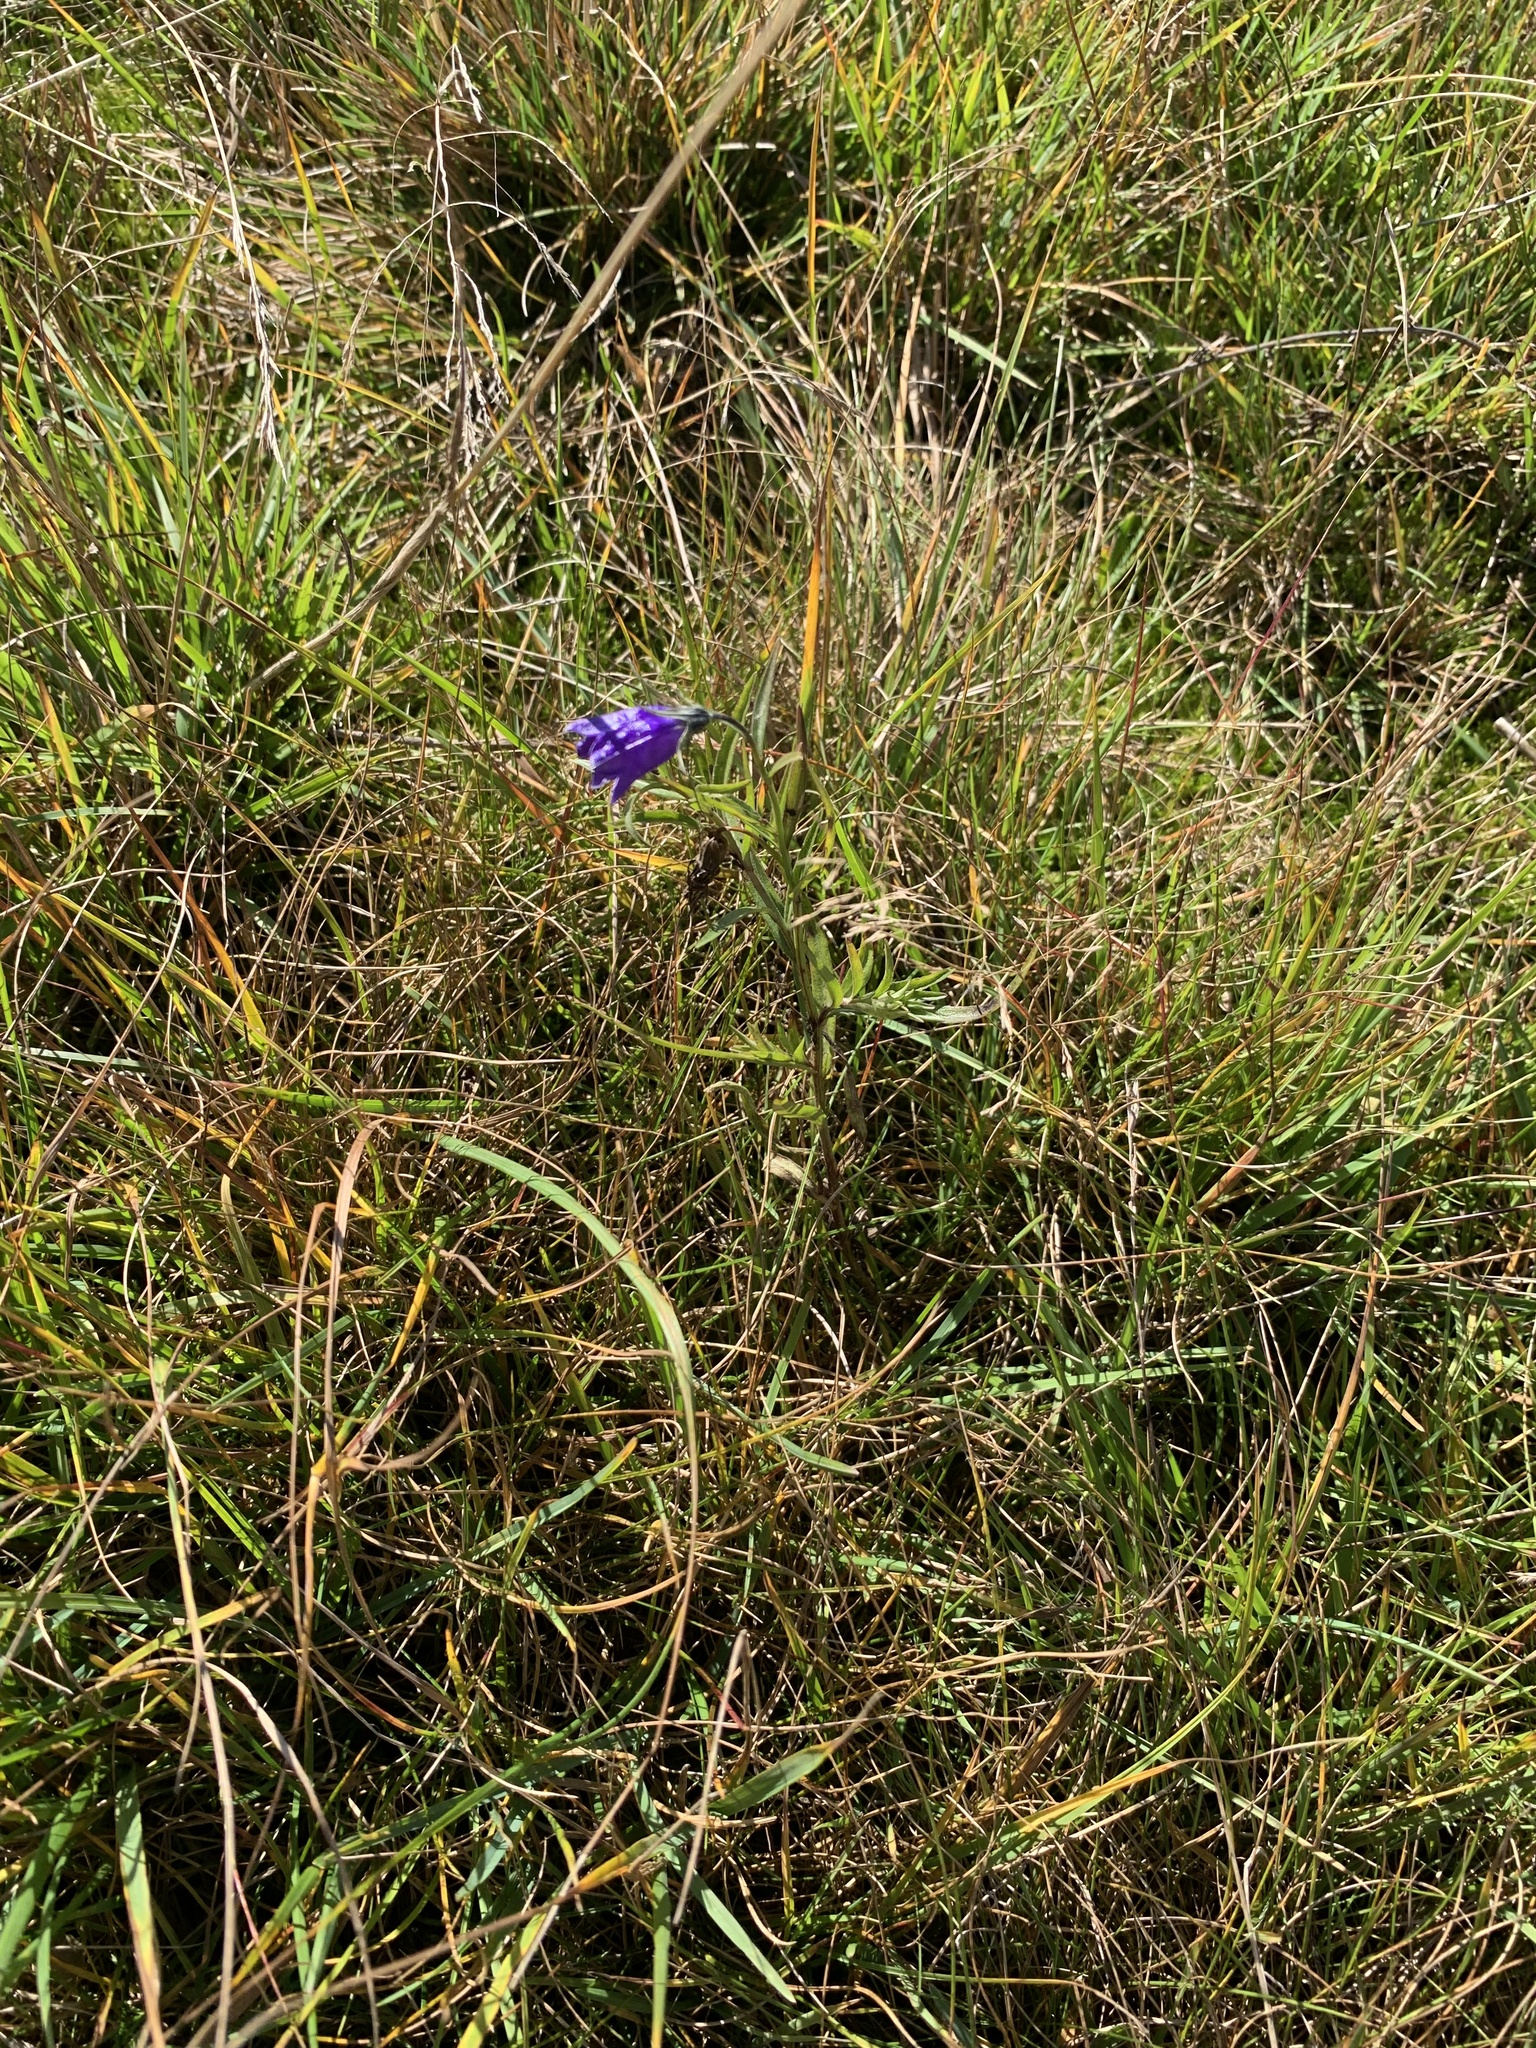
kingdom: Plantae
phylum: Tracheophyta
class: Magnoliopsida
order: Gentianales
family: Gentianaceae
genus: Gentiana
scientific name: Gentiana pneumonanthe
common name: Marsh gentian
